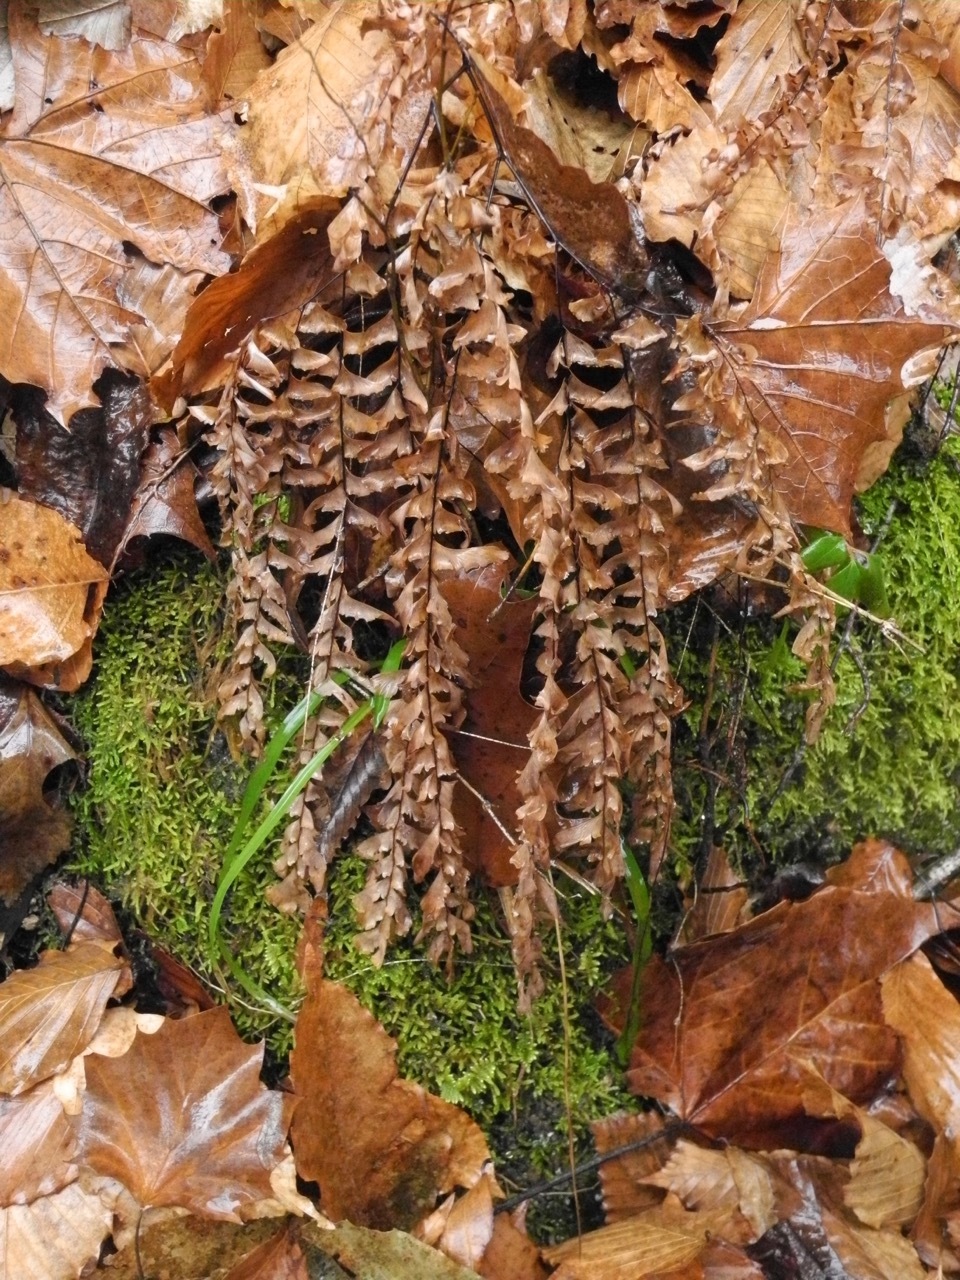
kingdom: Plantae
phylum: Tracheophyta
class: Polypodiopsida
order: Polypodiales
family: Pteridaceae
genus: Adiantum
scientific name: Adiantum pedatum
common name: Five-finger fern
